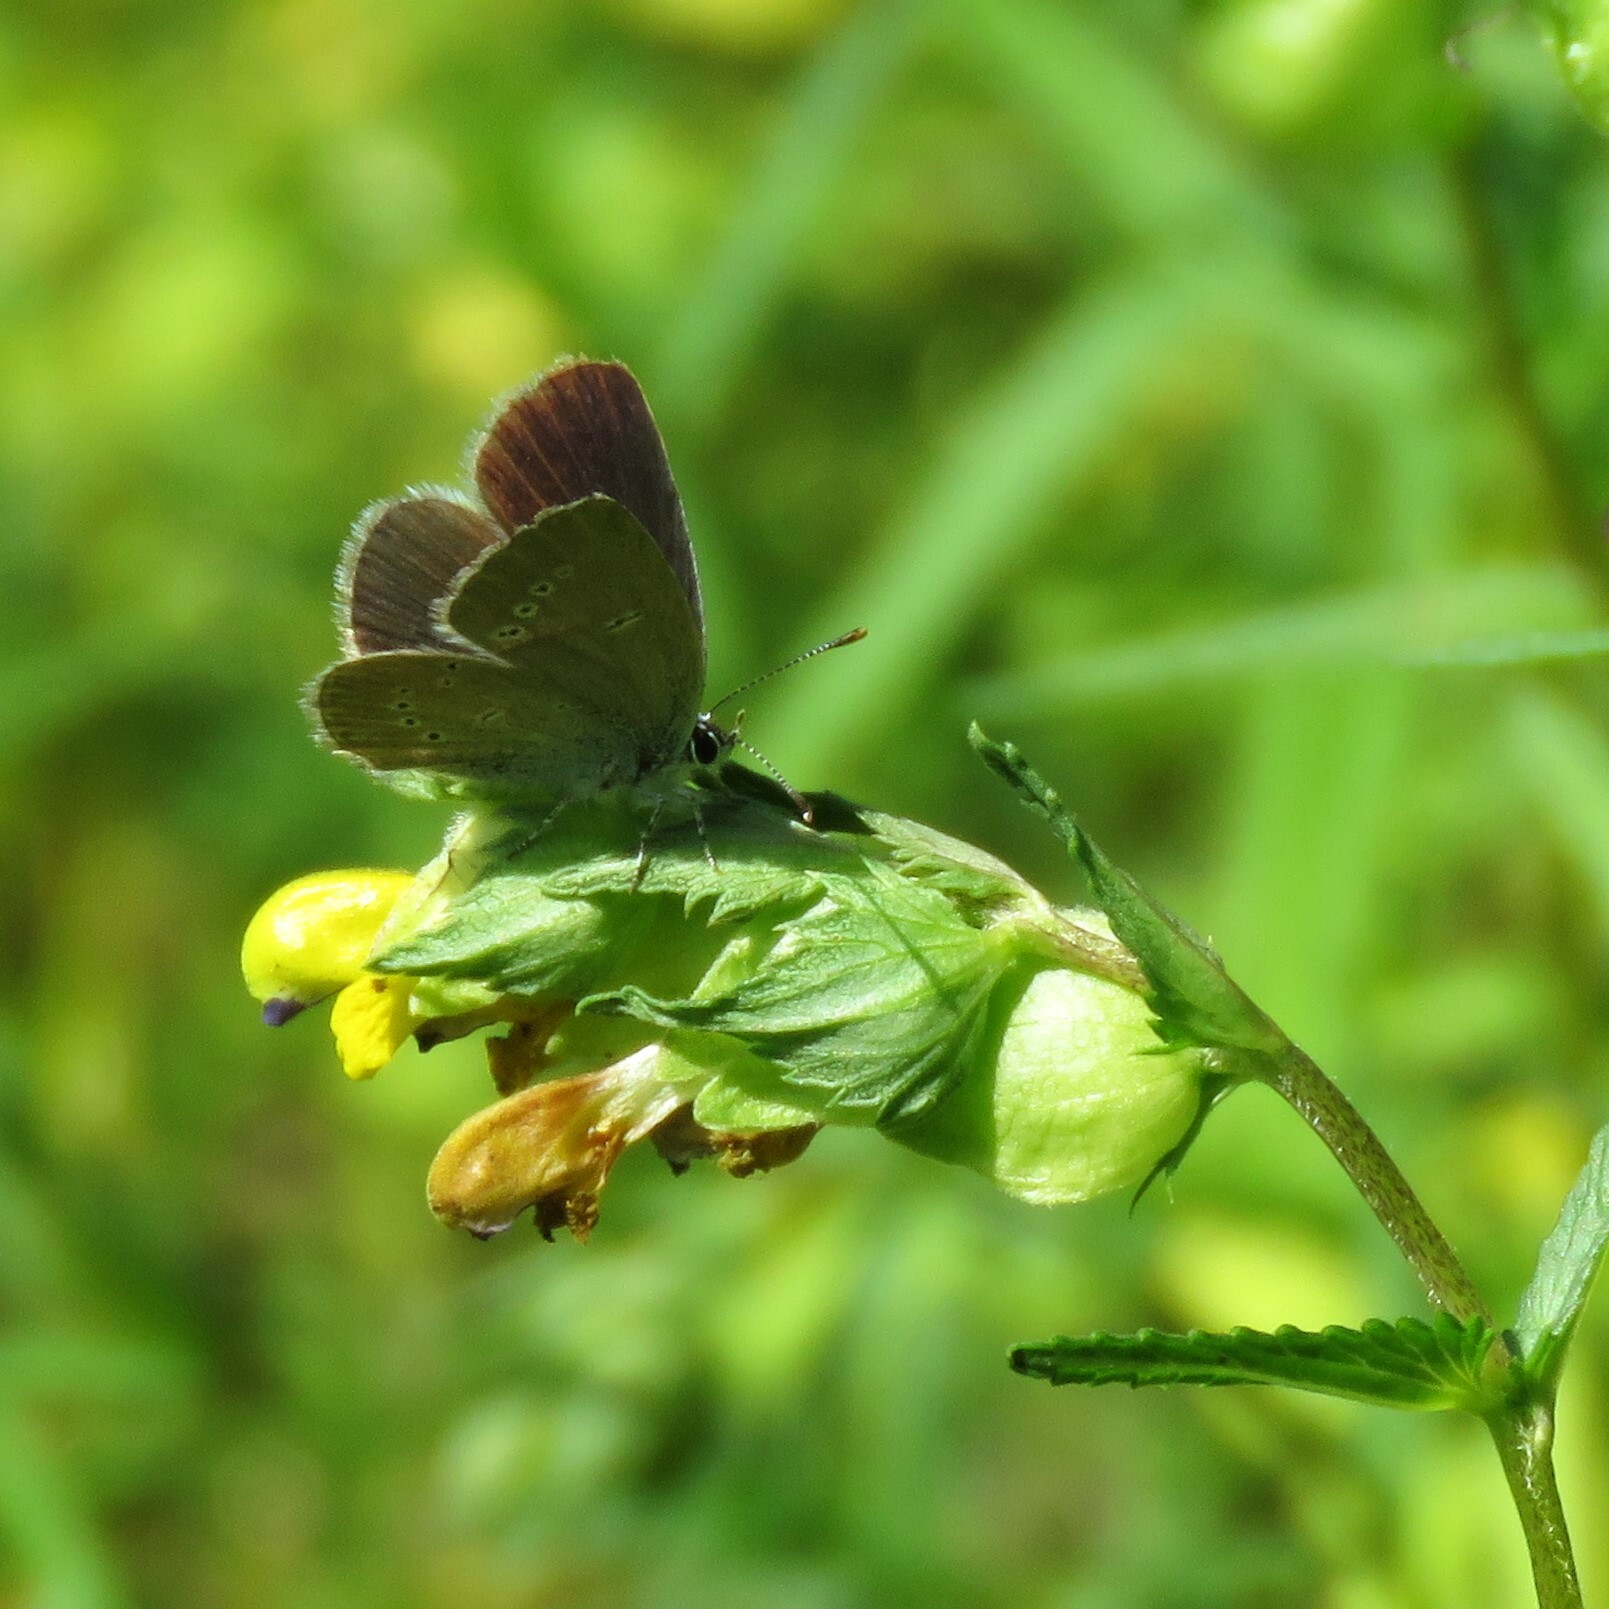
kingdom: Animalia
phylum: Arthropoda
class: Insecta
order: Lepidoptera
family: Lycaenidae
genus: Cupido
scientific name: Cupido minimus
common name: Small blue
